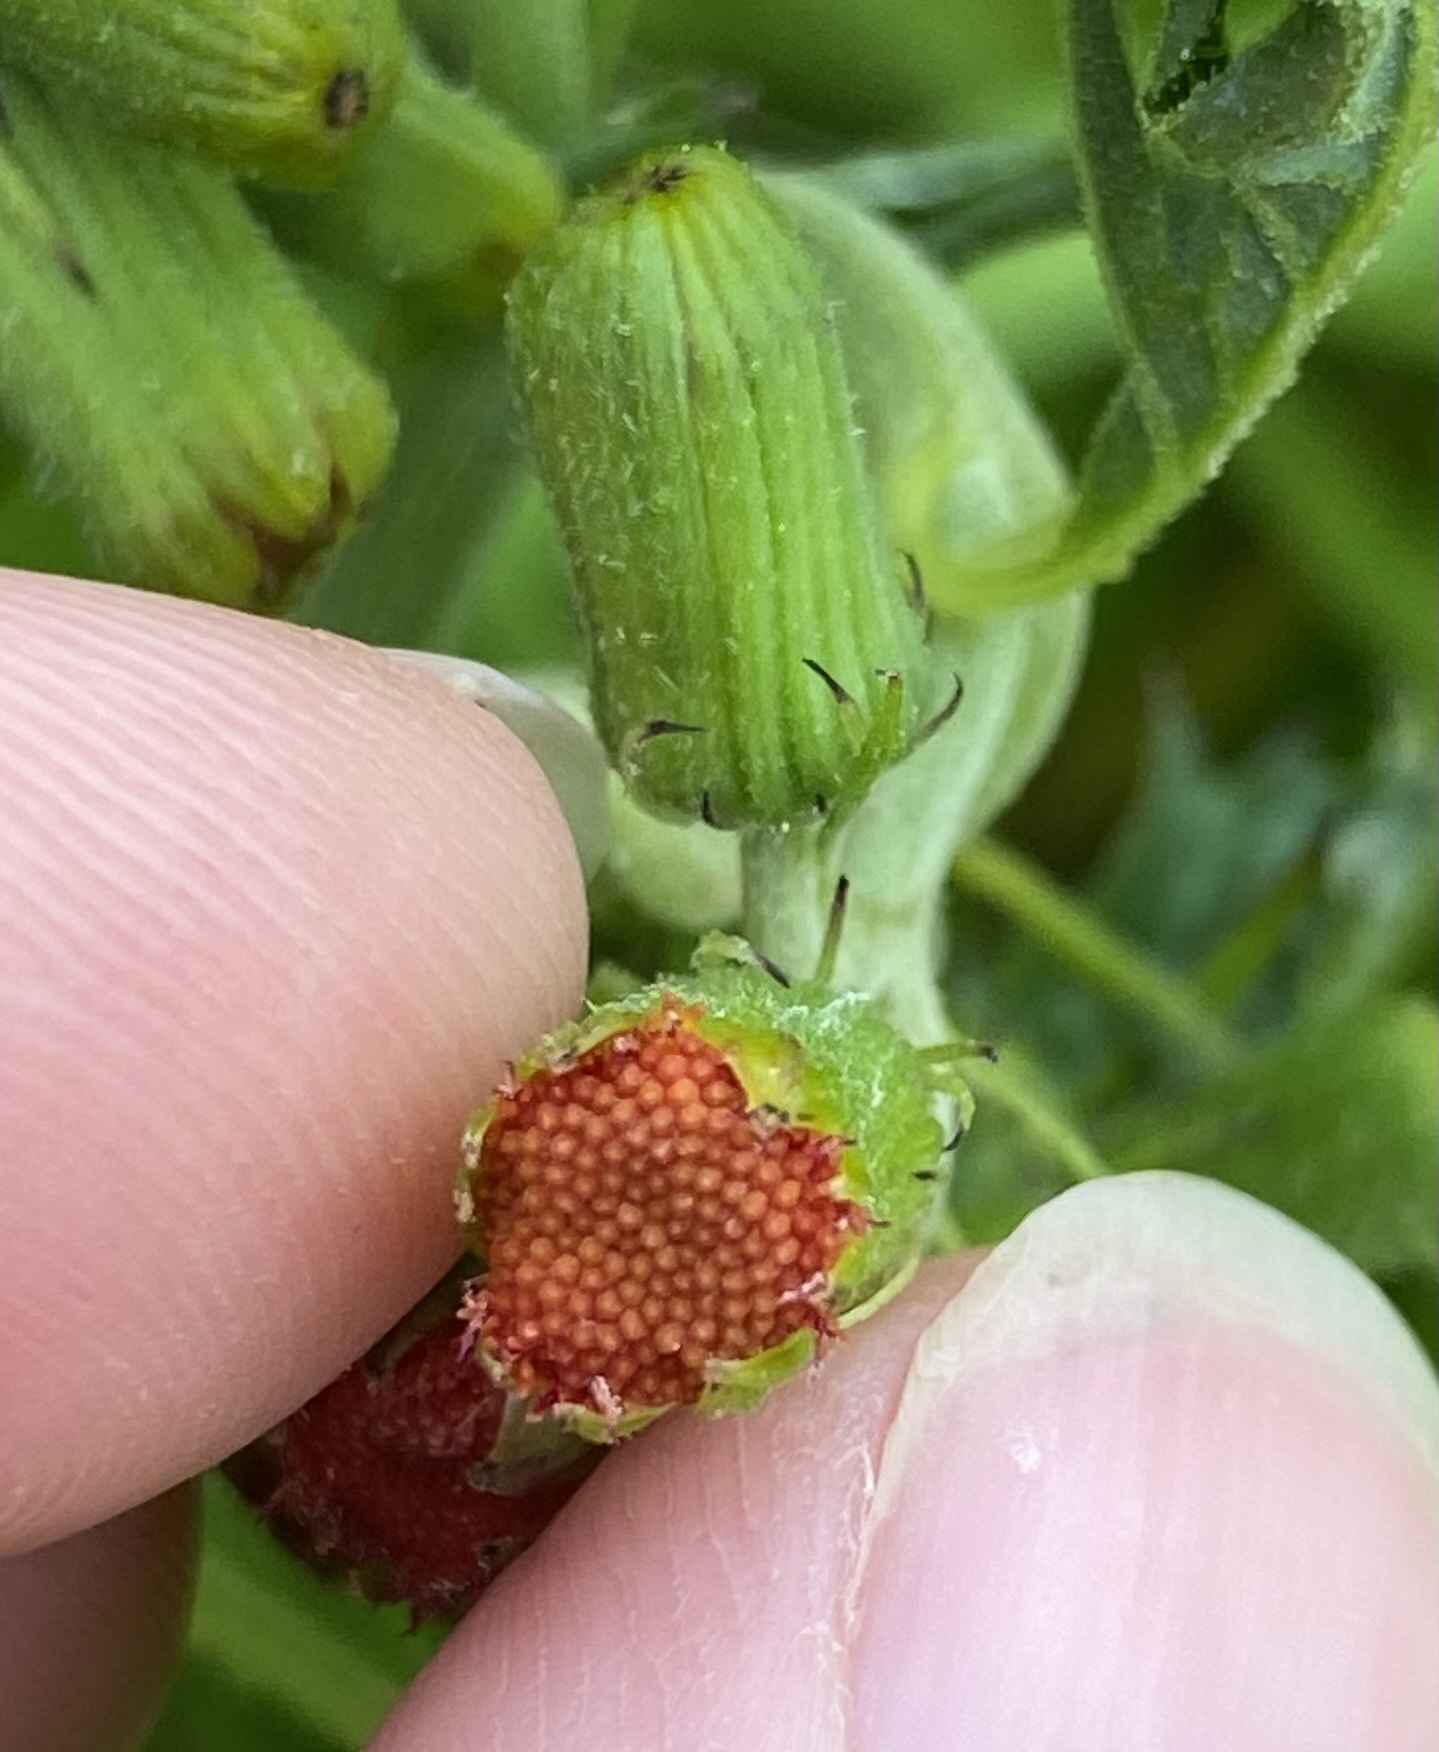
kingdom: Plantae
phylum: Tracheophyta
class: Magnoliopsida
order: Asterales
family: Asteraceae
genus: Crassocephalum
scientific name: Crassocephalum crepidioides
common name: Redflower ragleaf
